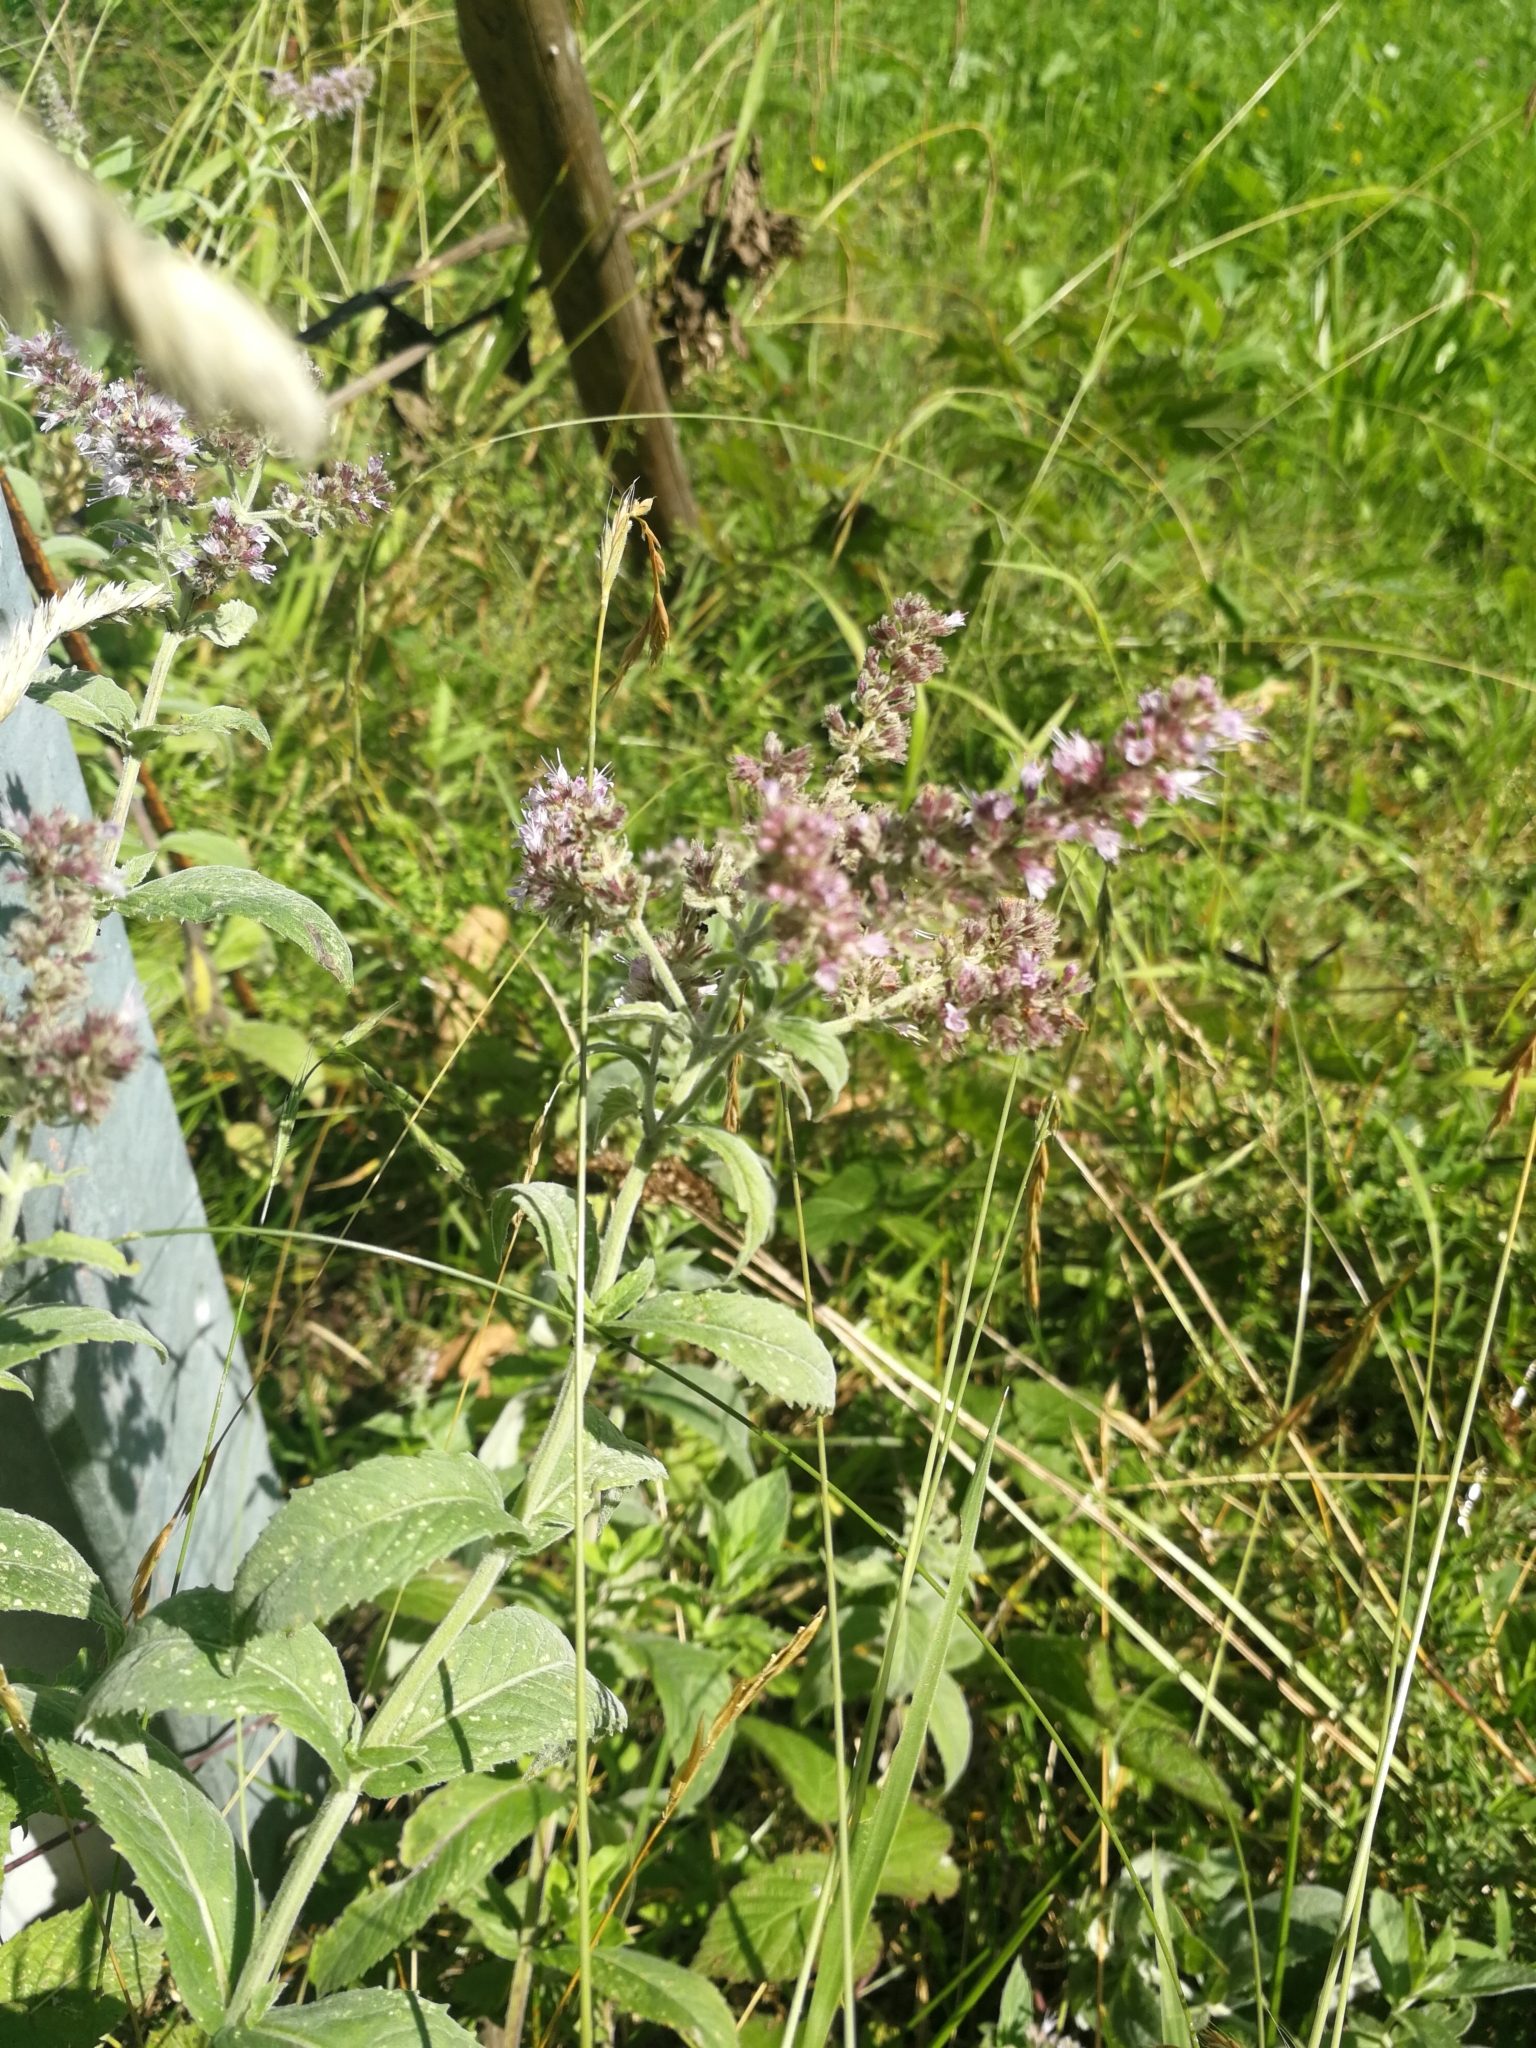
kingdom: Plantae
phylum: Tracheophyta
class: Magnoliopsida
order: Lamiales
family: Lamiaceae
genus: Mentha
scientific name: Mentha longifolia
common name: Horse mint
